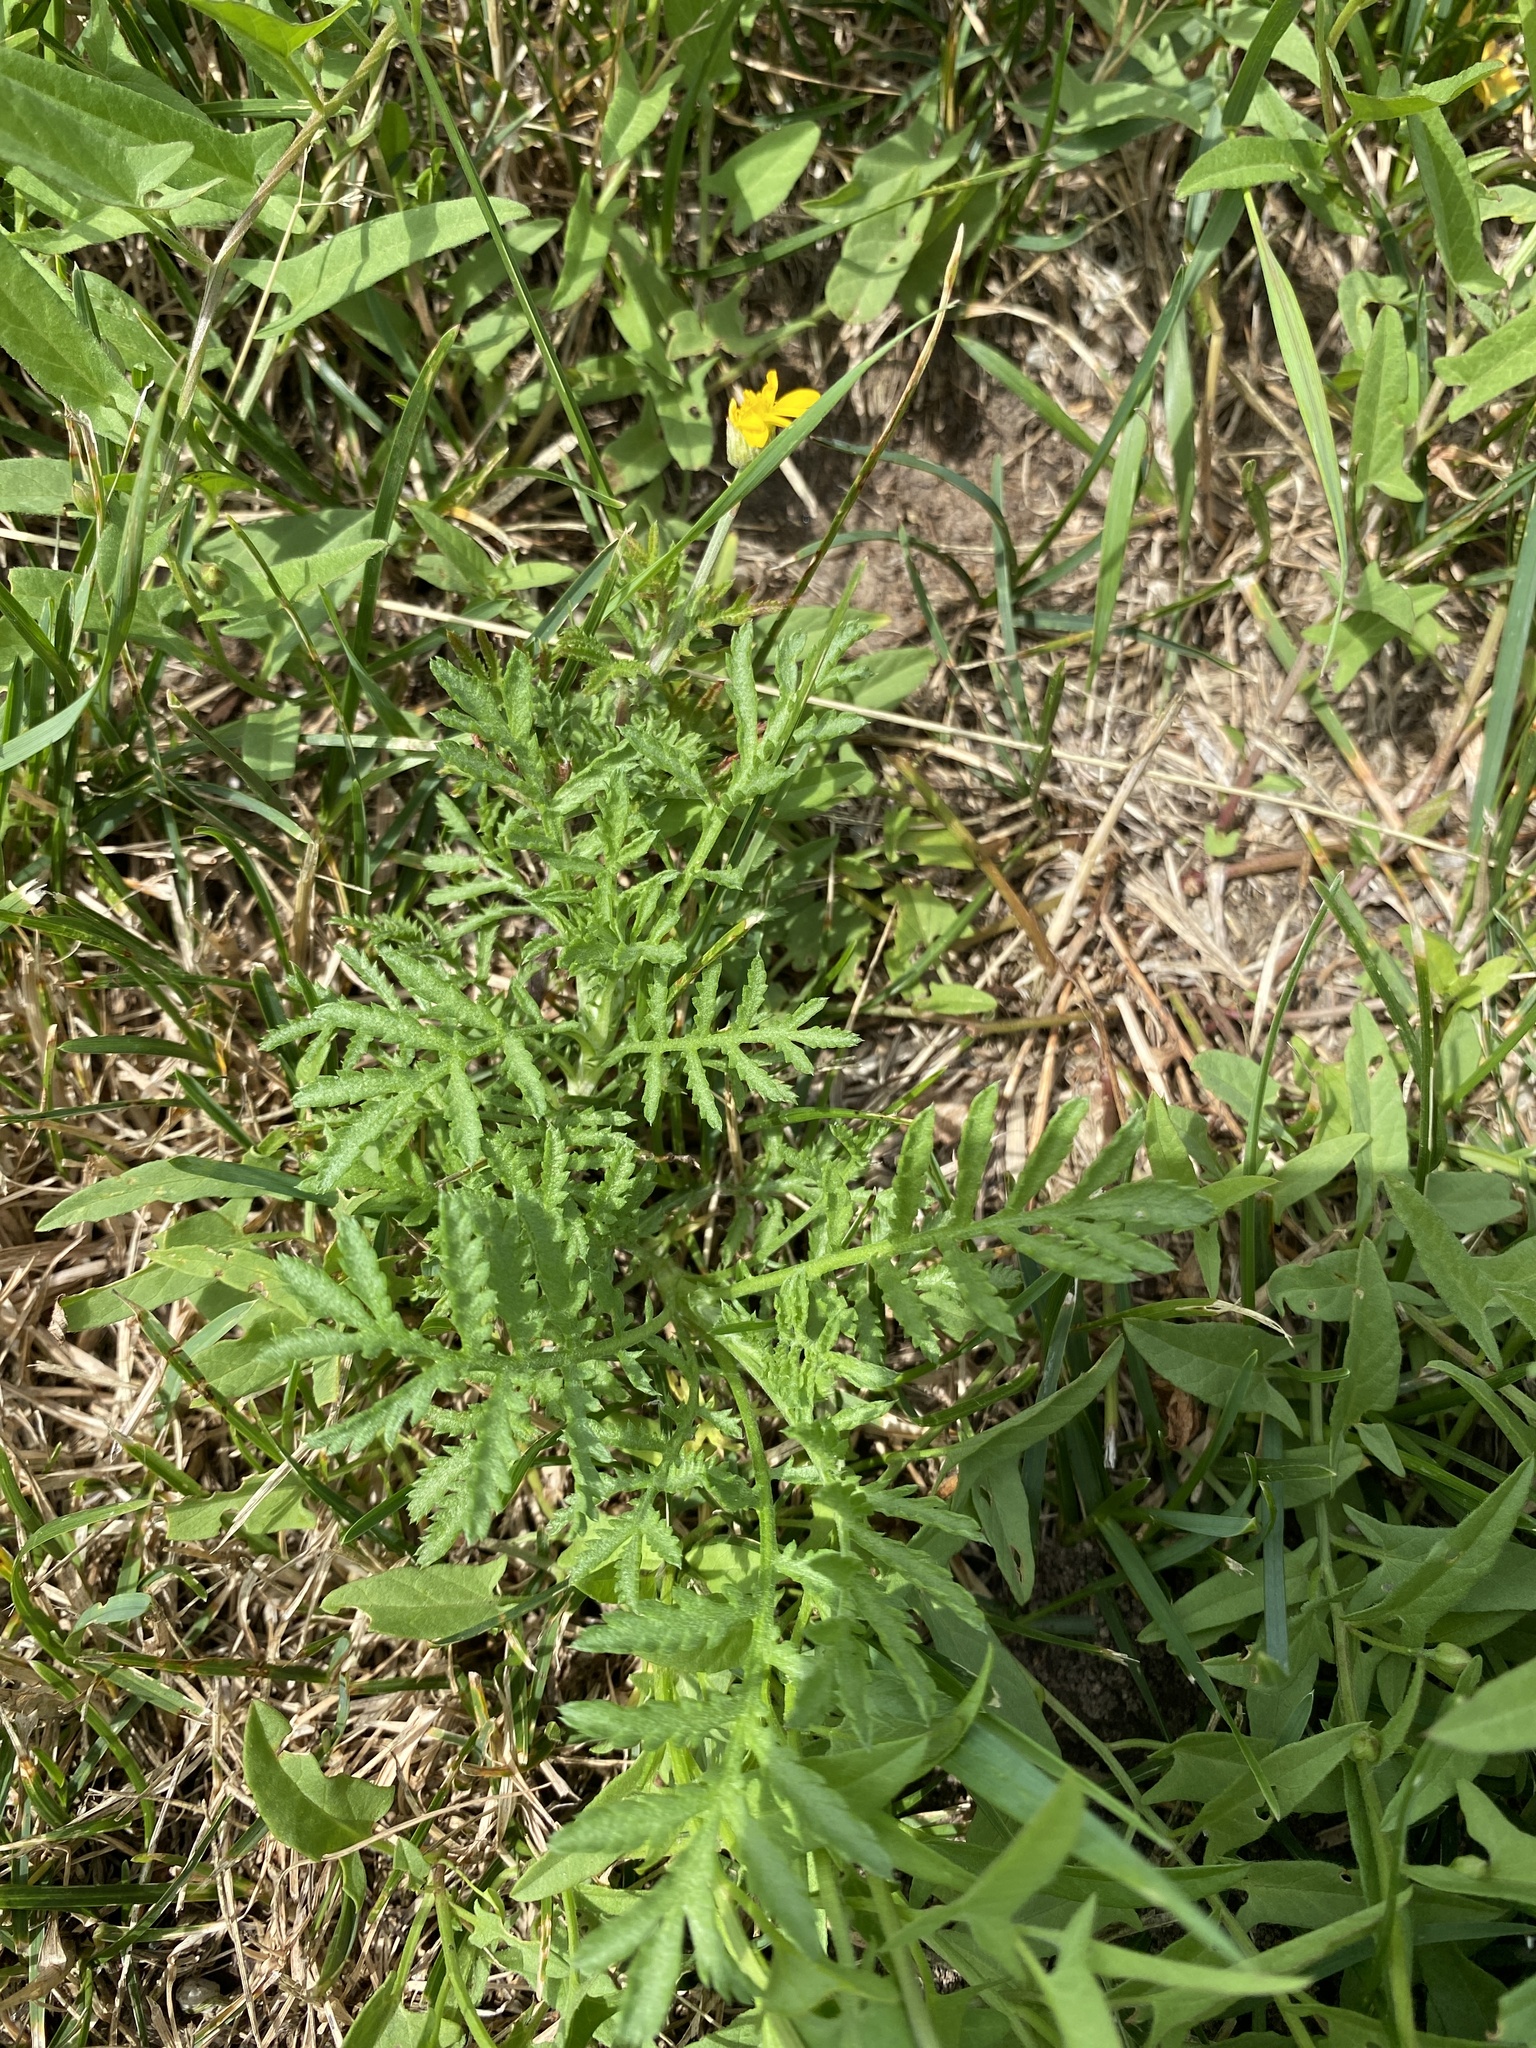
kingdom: Plantae
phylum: Tracheophyta
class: Magnoliopsida
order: Asterales
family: Asteraceae
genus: Cota
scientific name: Cota tinctoria
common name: Golden chamomile
